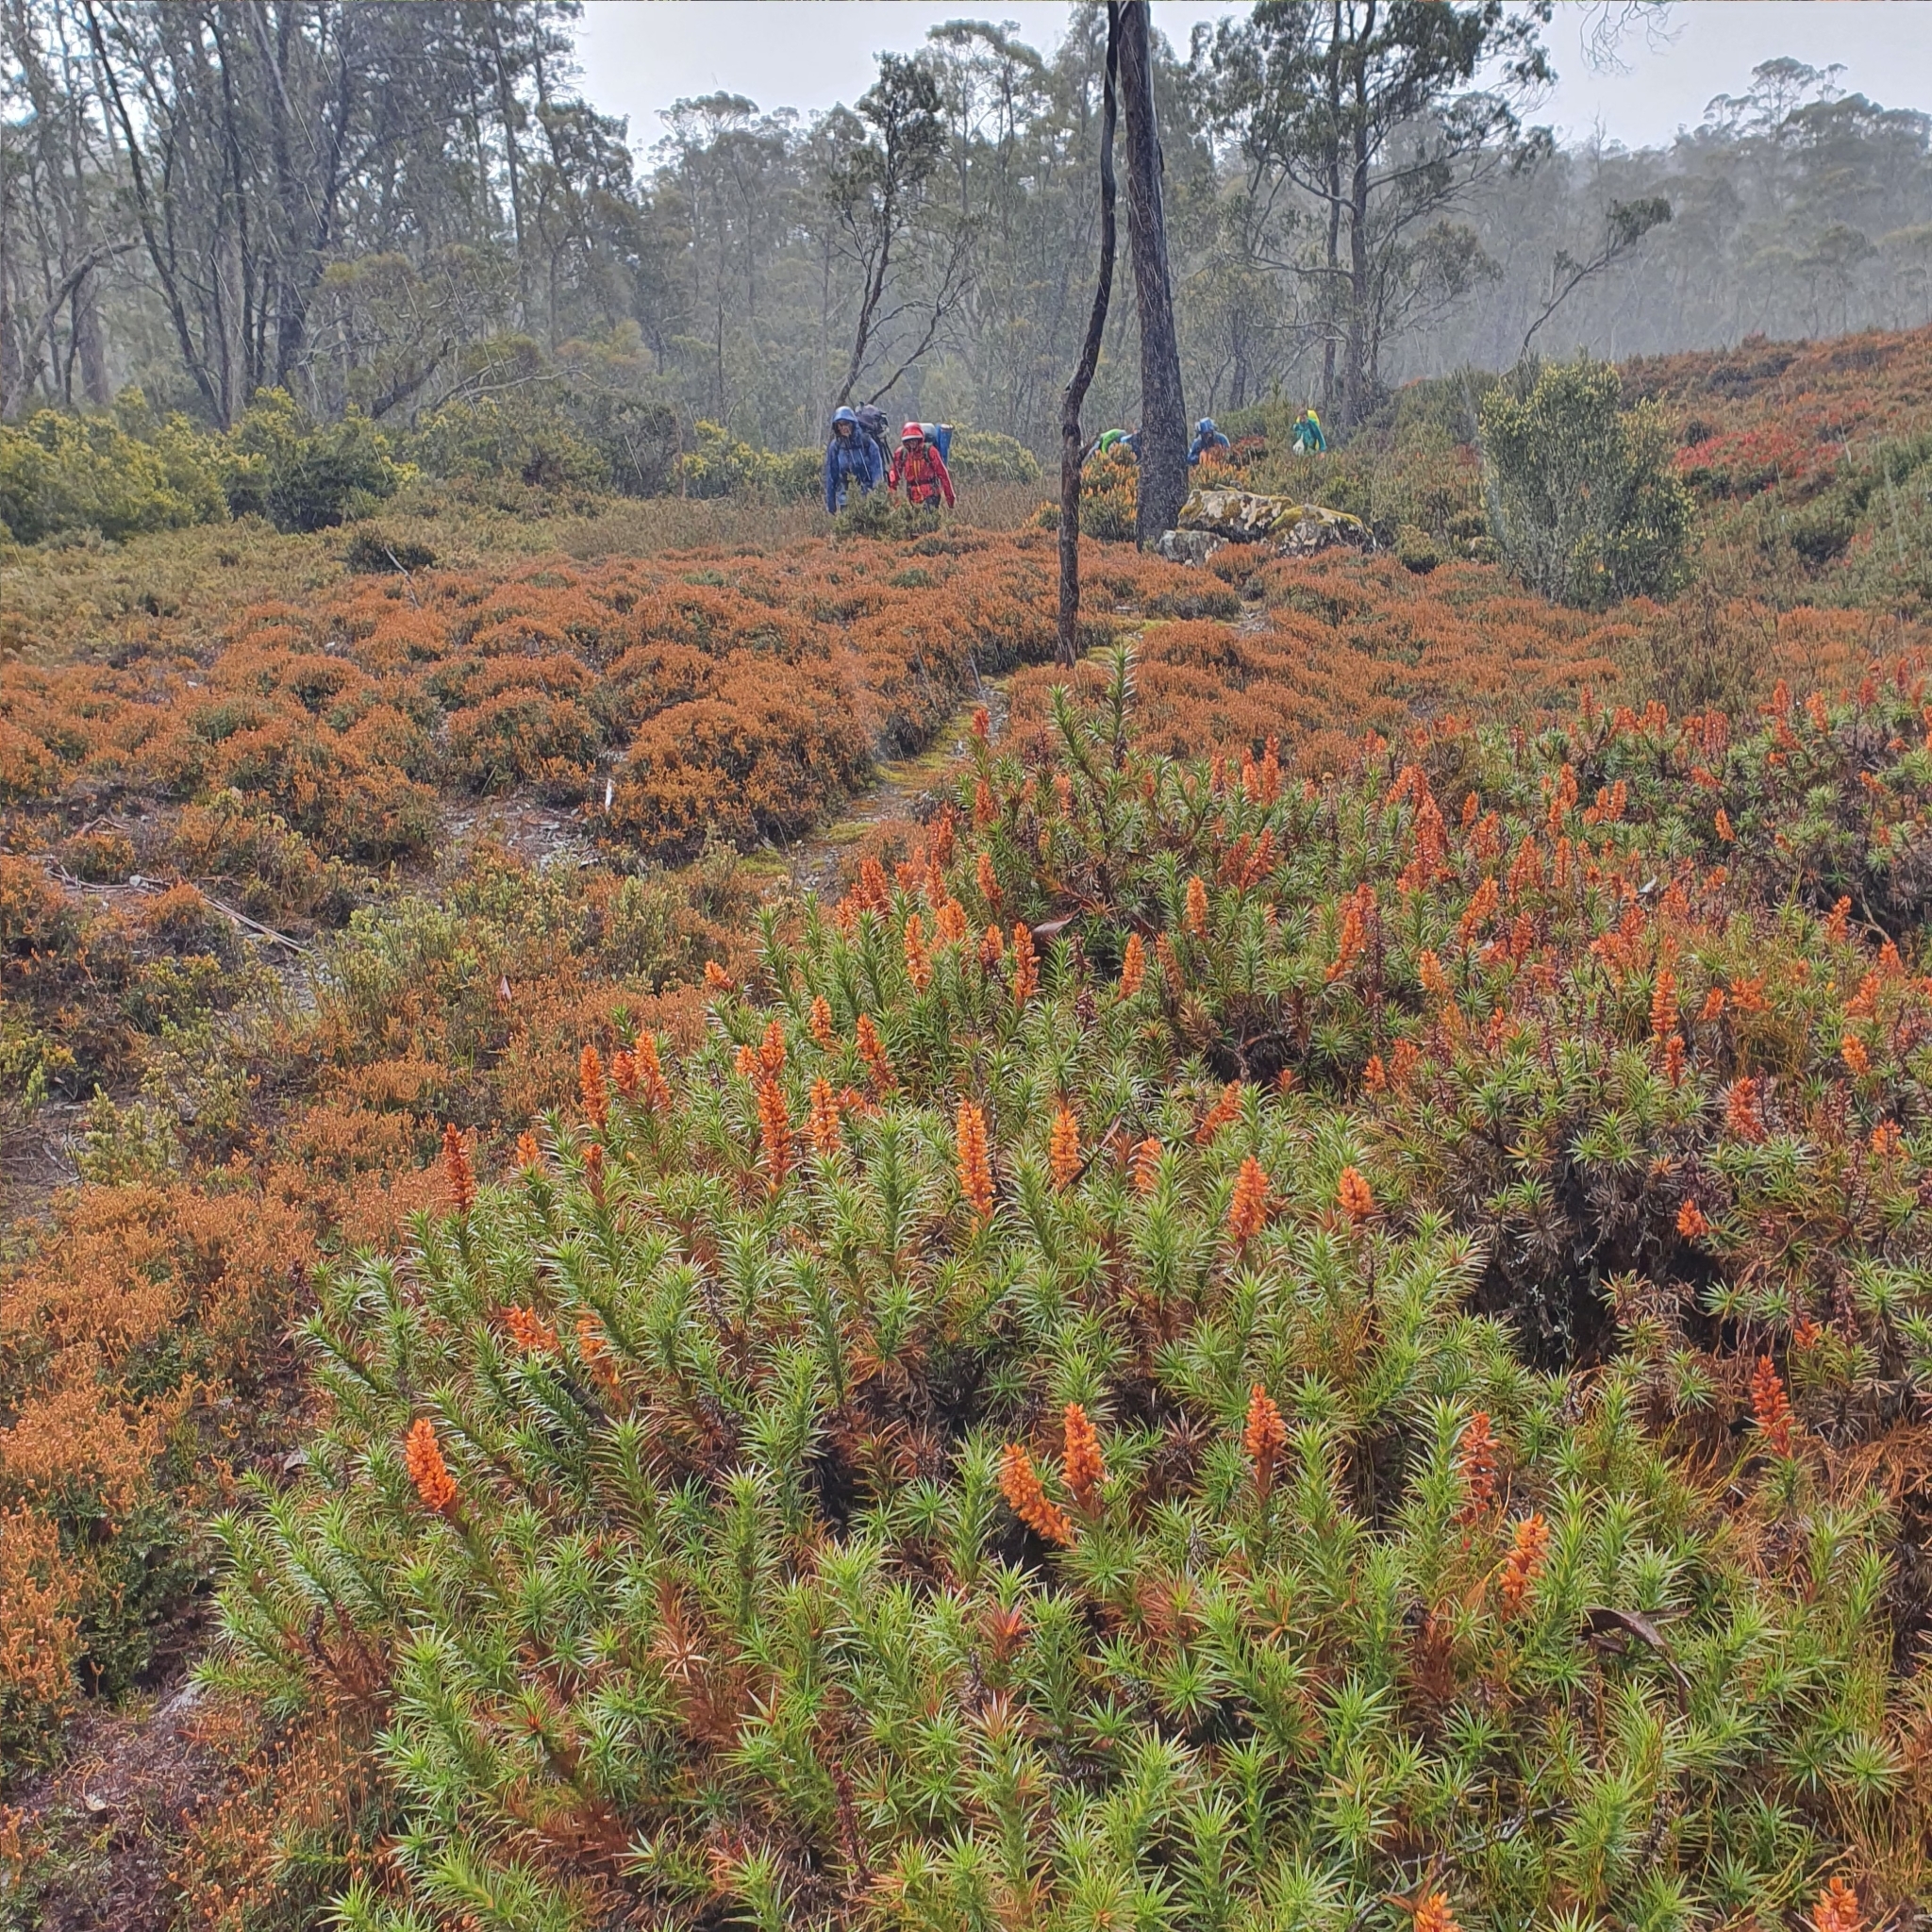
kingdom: Plantae
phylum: Tracheophyta
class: Magnoliopsida
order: Ericales
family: Ericaceae
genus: Dracophyllum
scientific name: Dracophyllum persistentifolium
